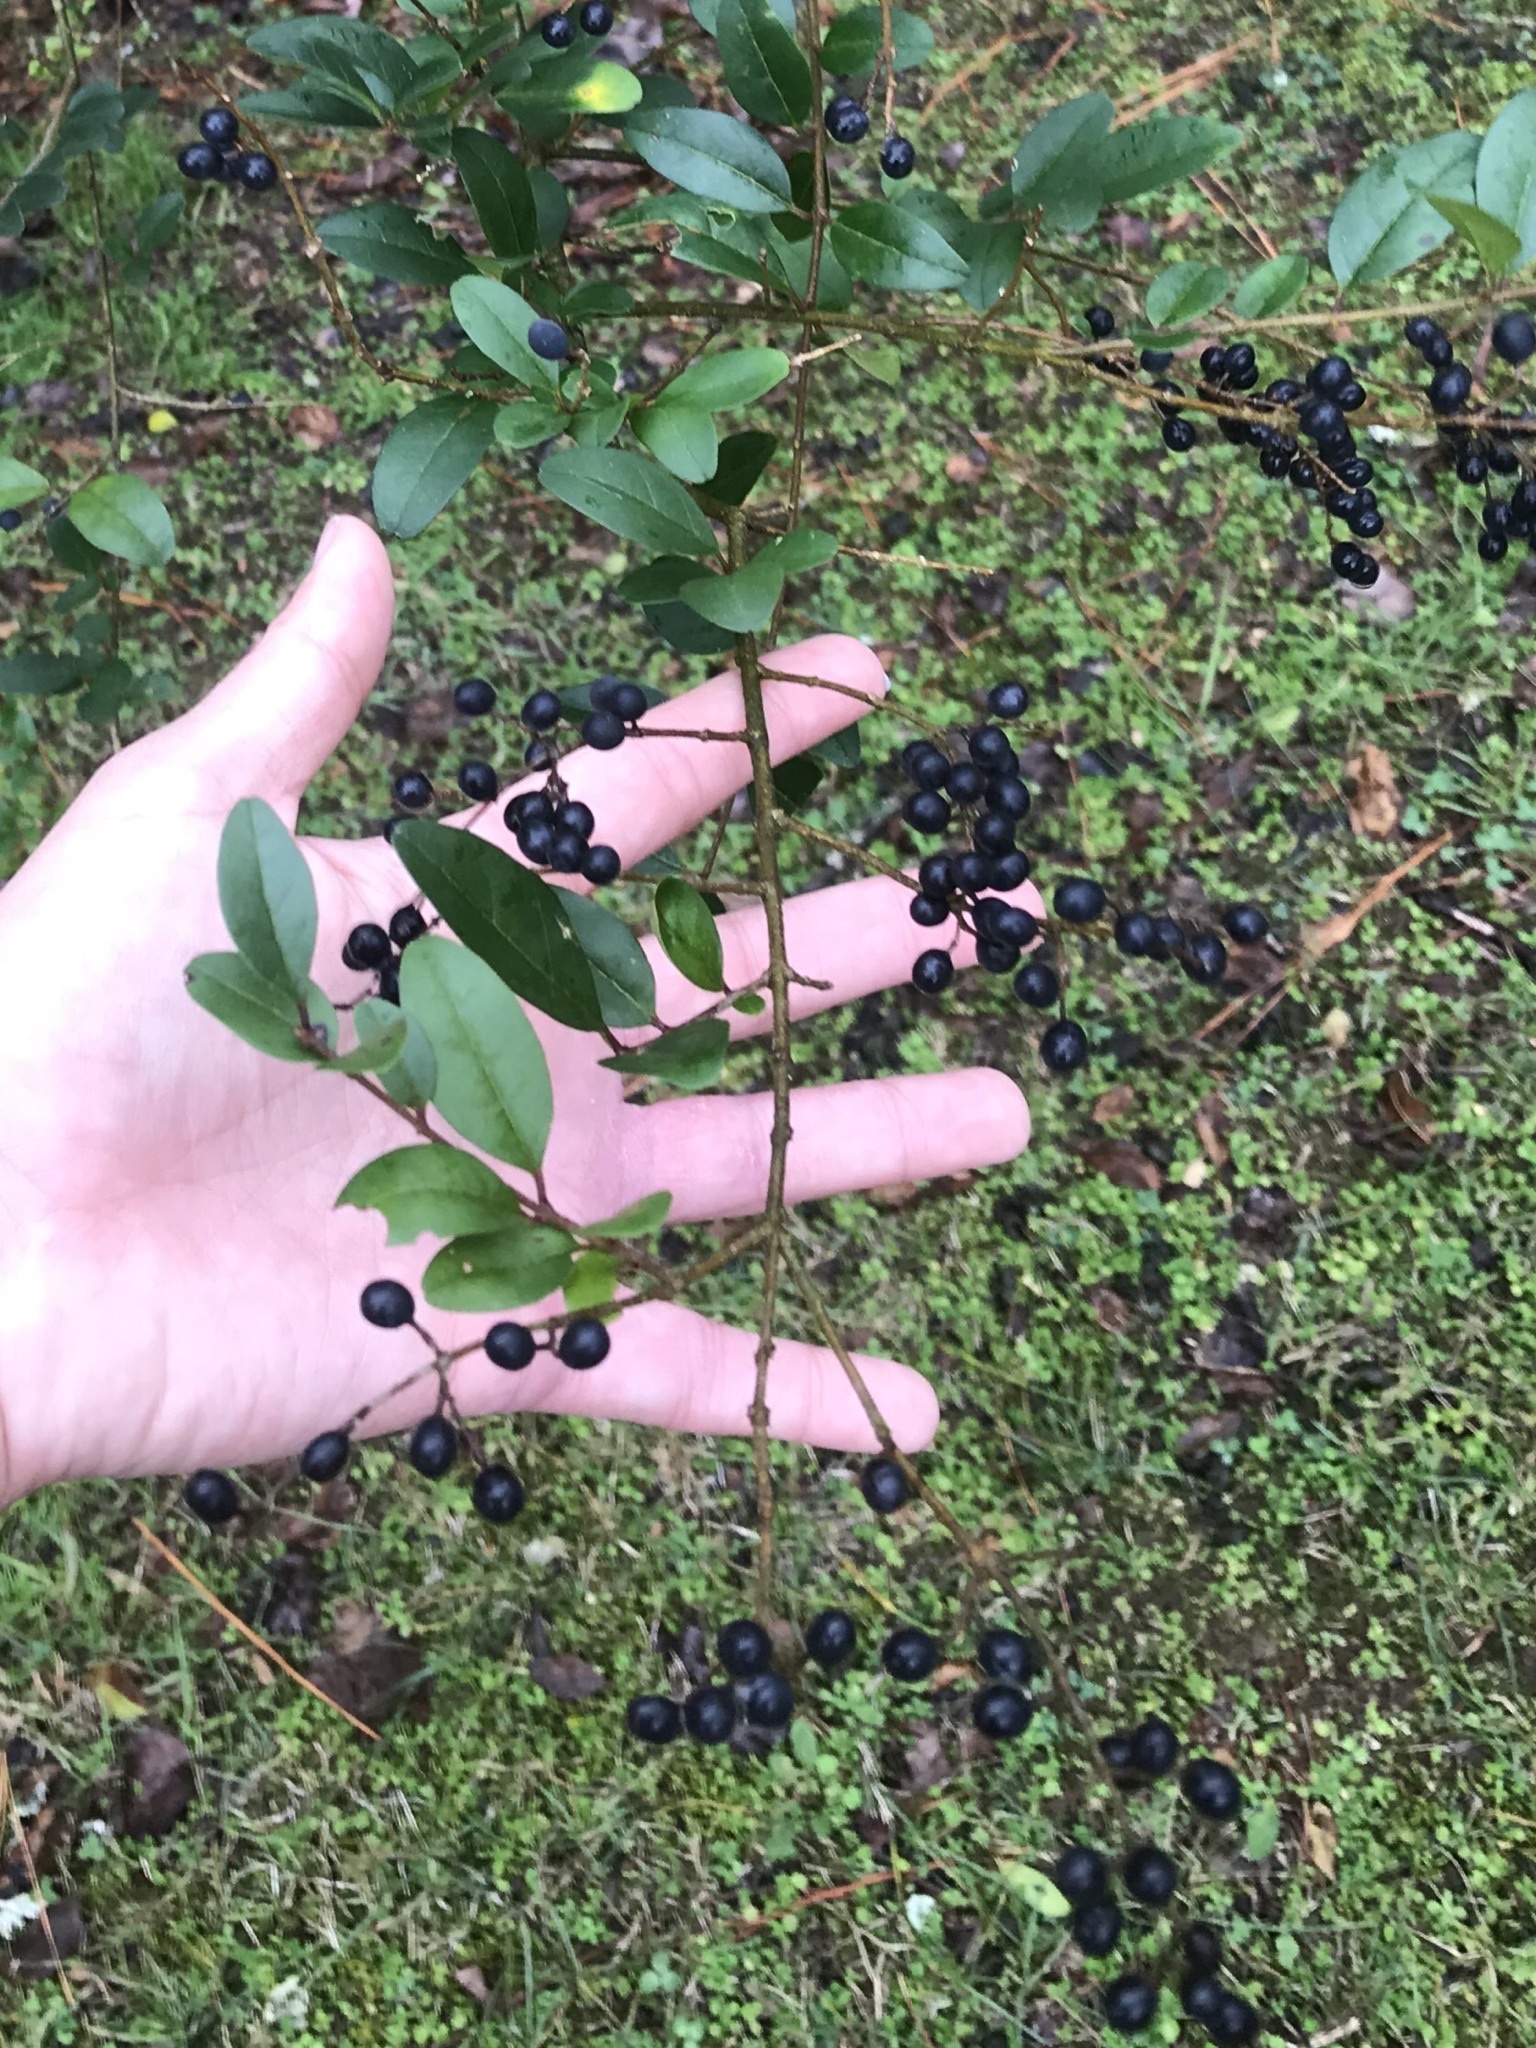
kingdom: Plantae
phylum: Tracheophyta
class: Magnoliopsida
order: Lamiales
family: Oleaceae
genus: Ligustrum
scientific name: Ligustrum sinense
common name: Chinese privet
